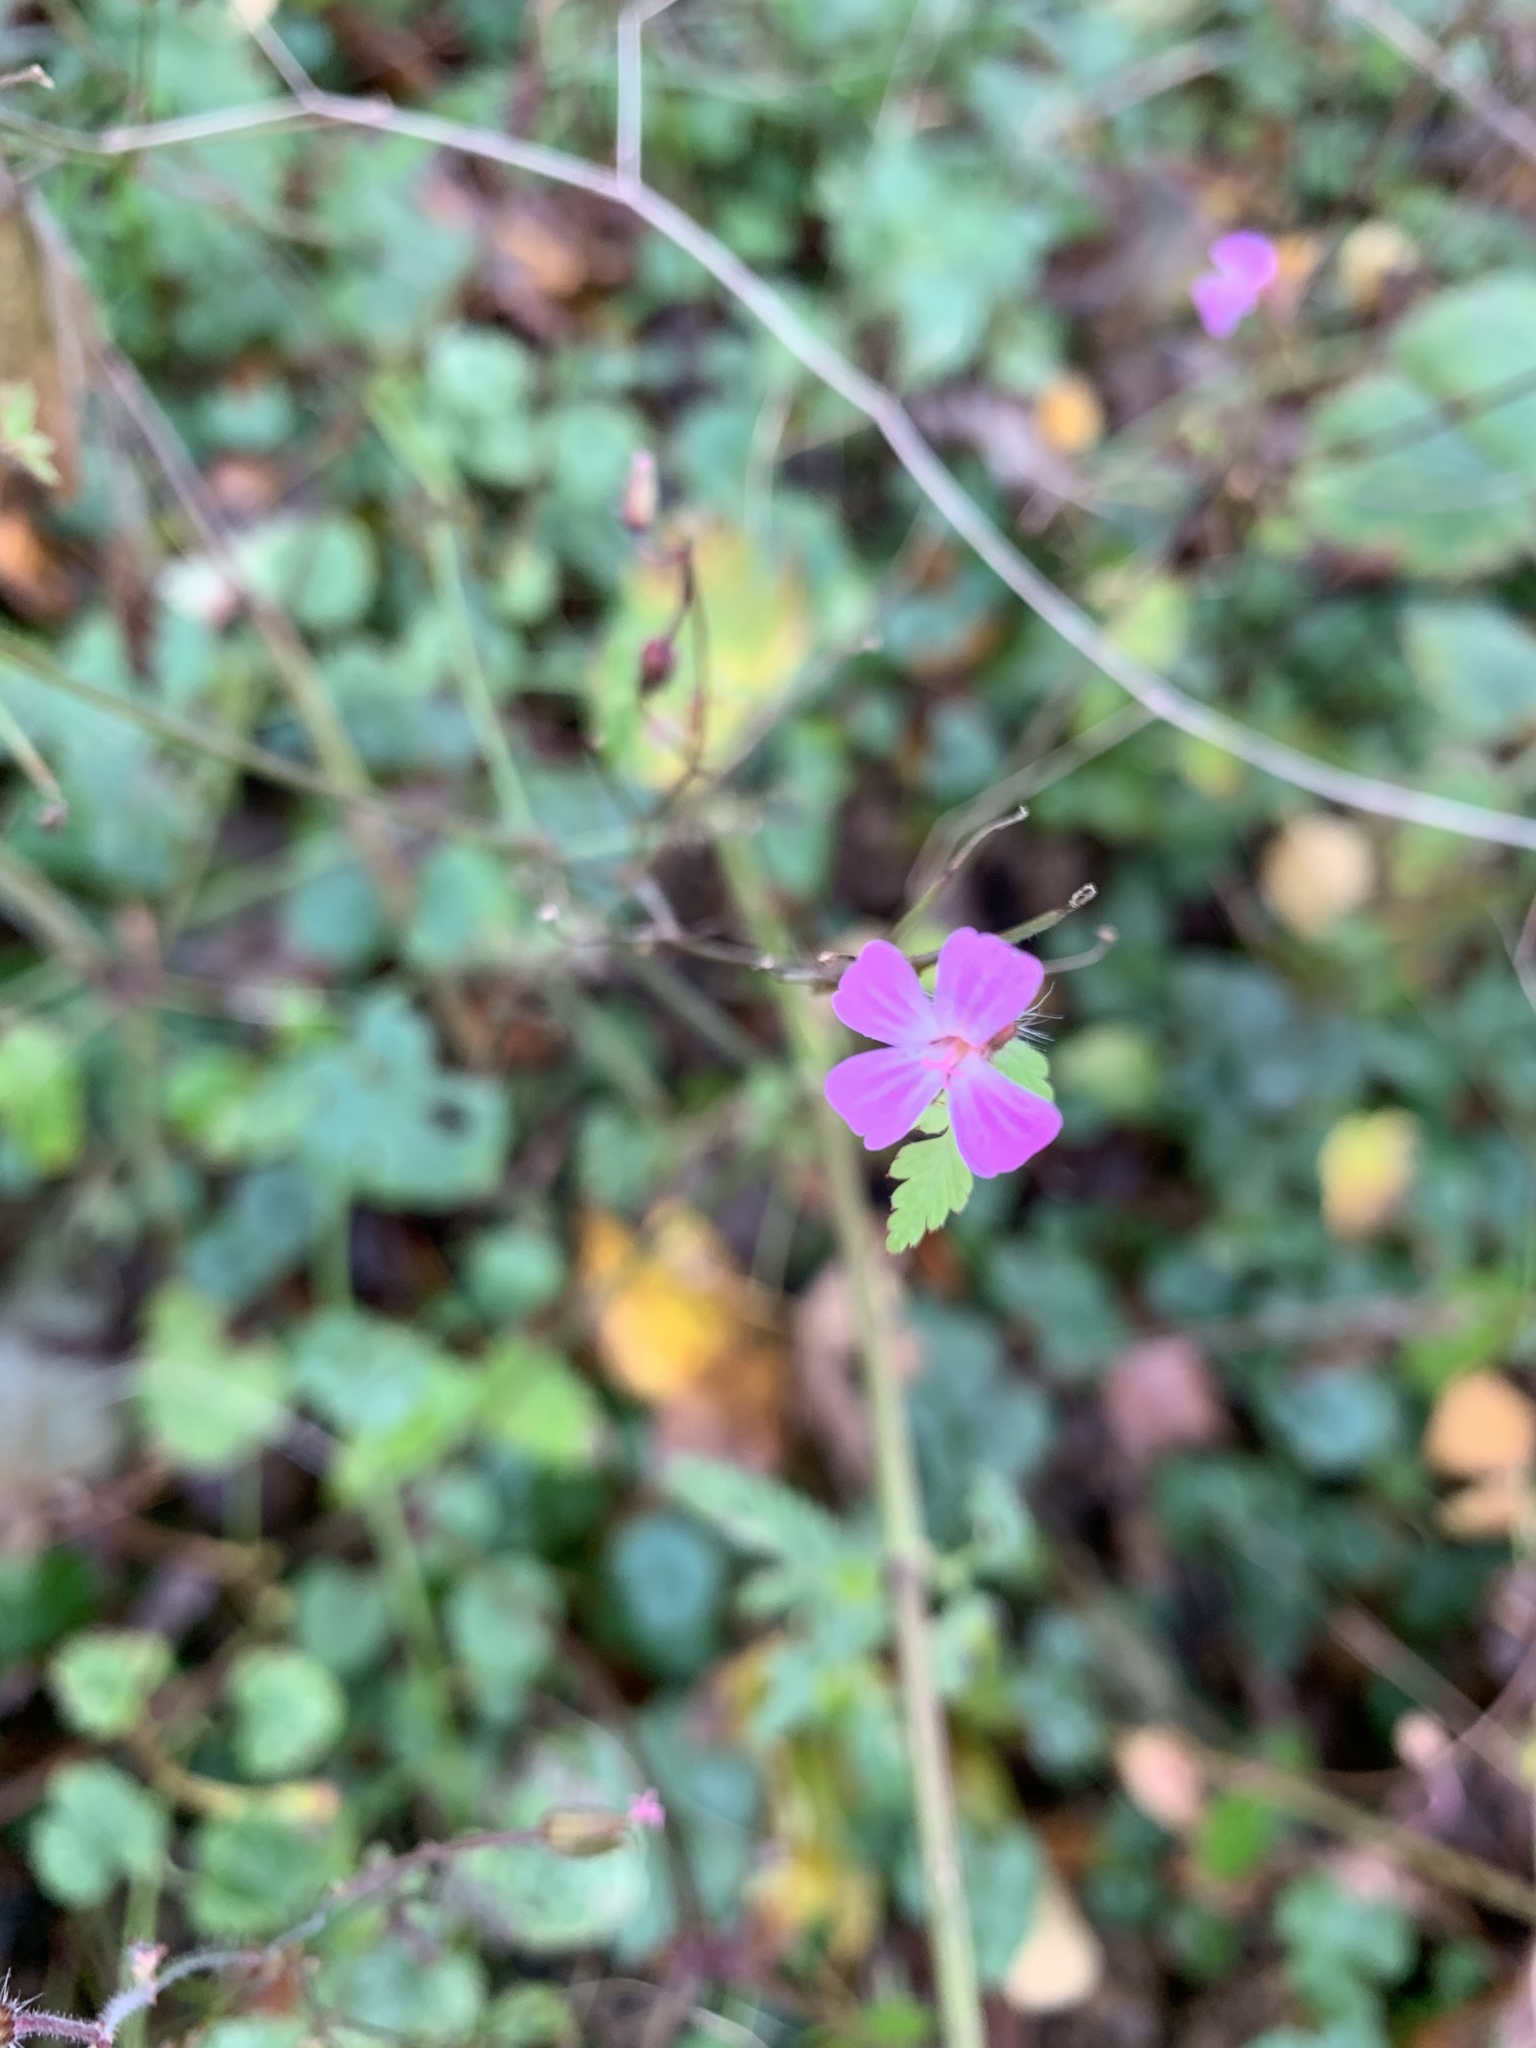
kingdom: Plantae
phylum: Tracheophyta
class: Magnoliopsida
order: Geraniales
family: Geraniaceae
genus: Geranium
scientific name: Geranium robertianum
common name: Herb-robert
